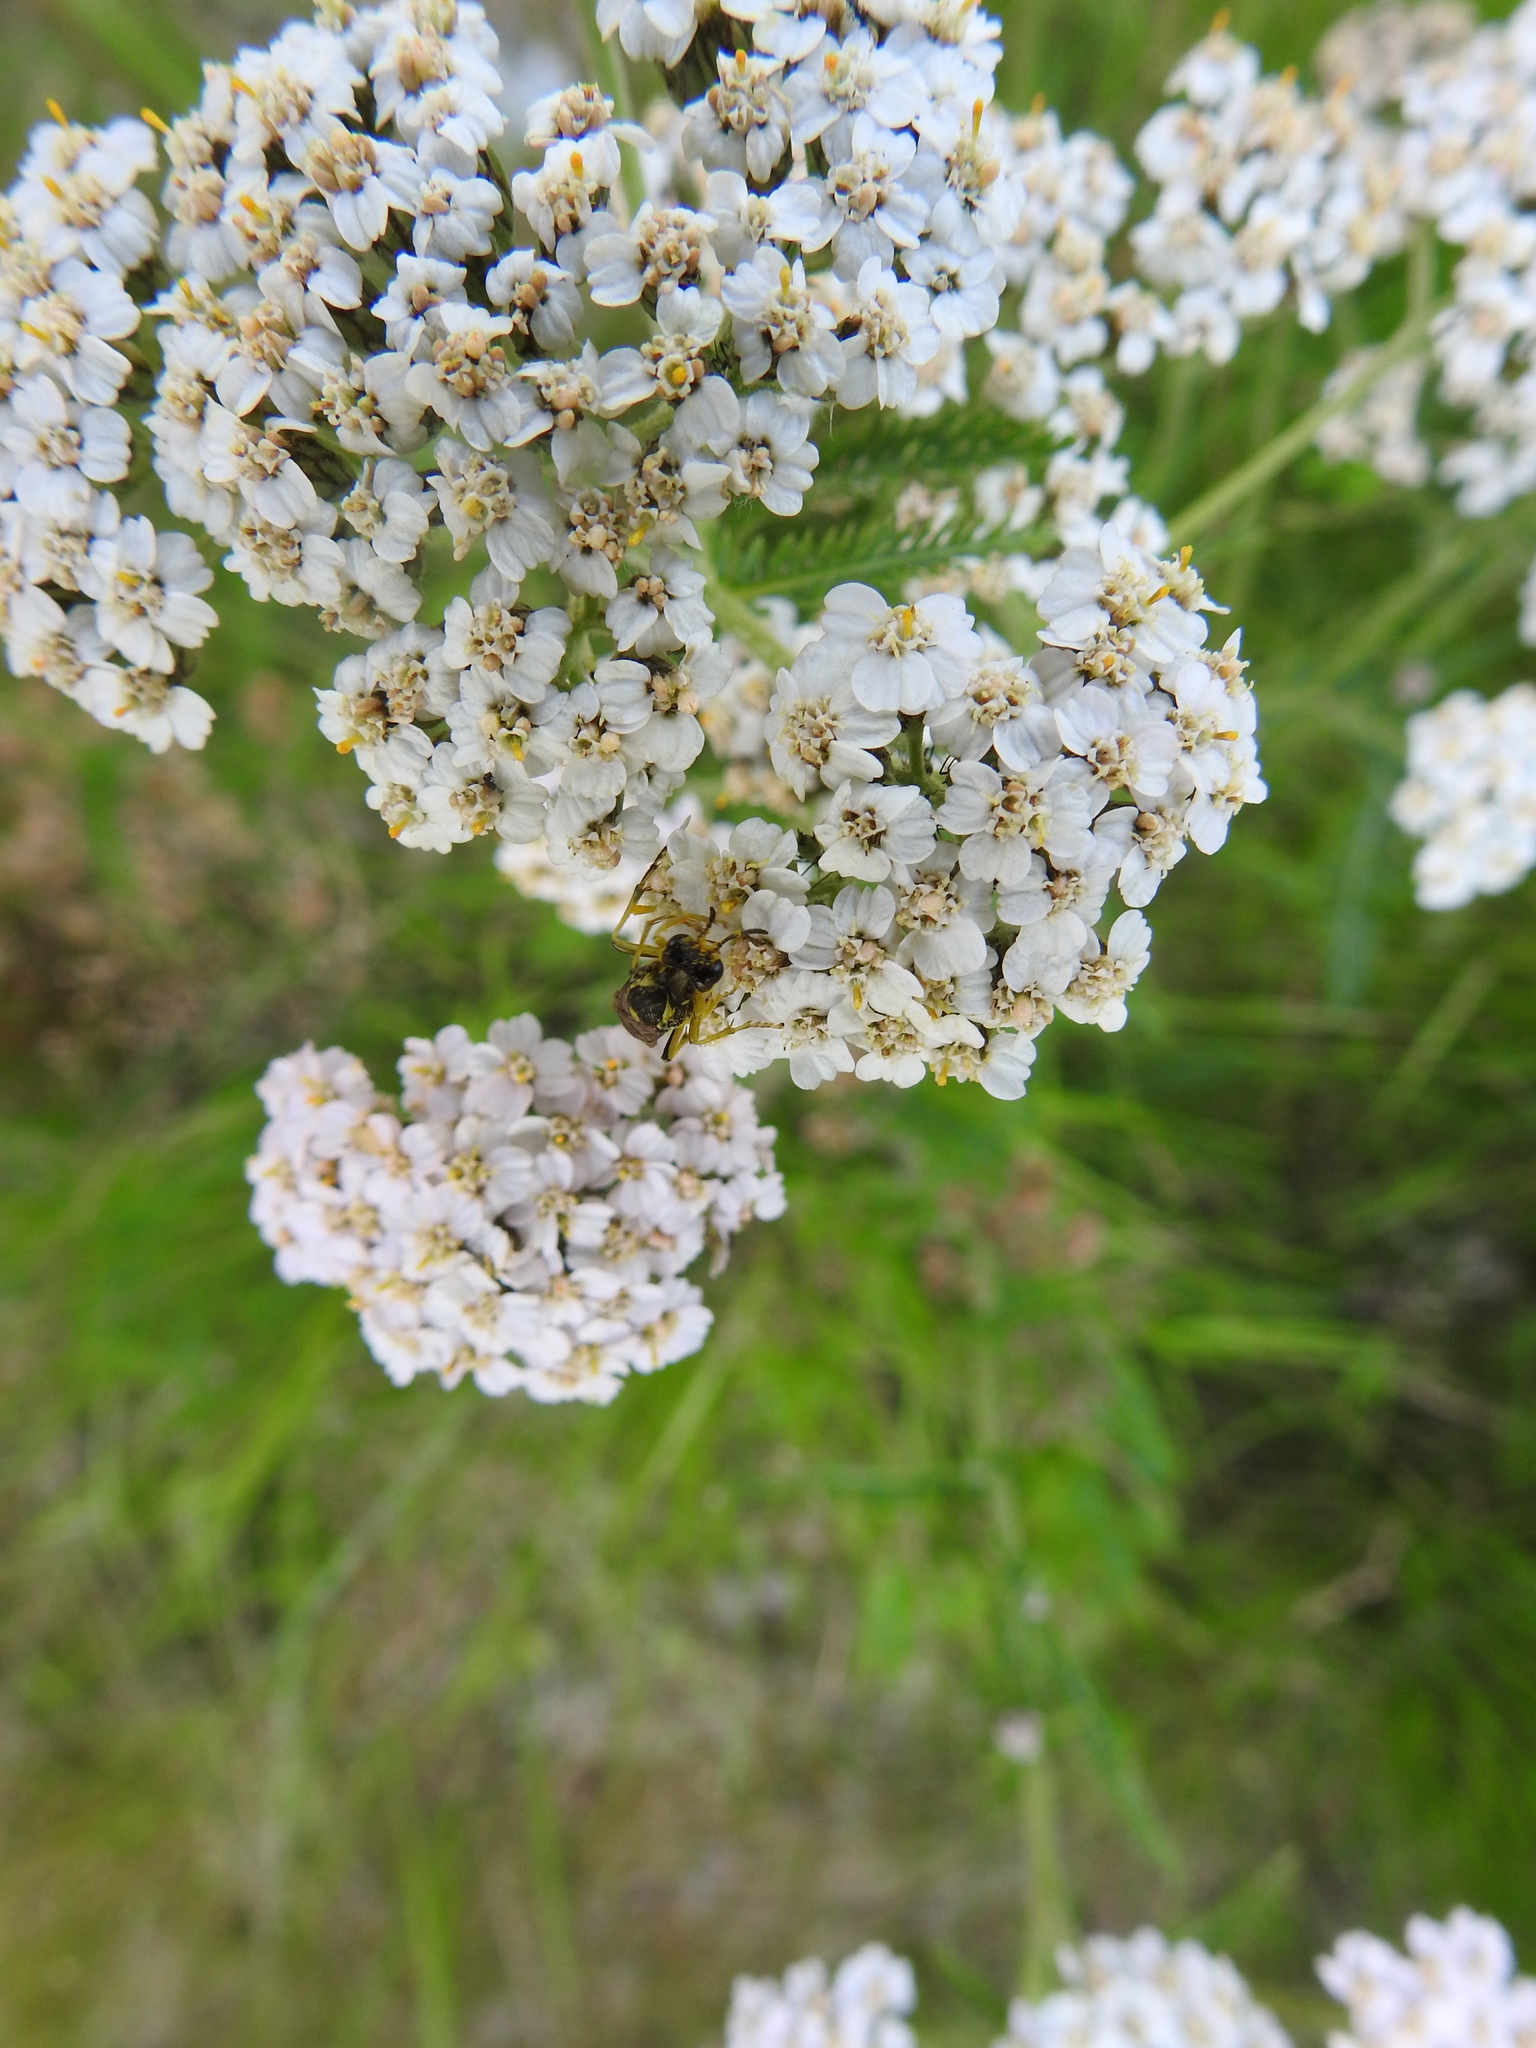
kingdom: Plantae
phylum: Tracheophyta
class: Magnoliopsida
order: Asterales
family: Asteraceae
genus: Achillea
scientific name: Achillea millefolium
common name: Yarrow
